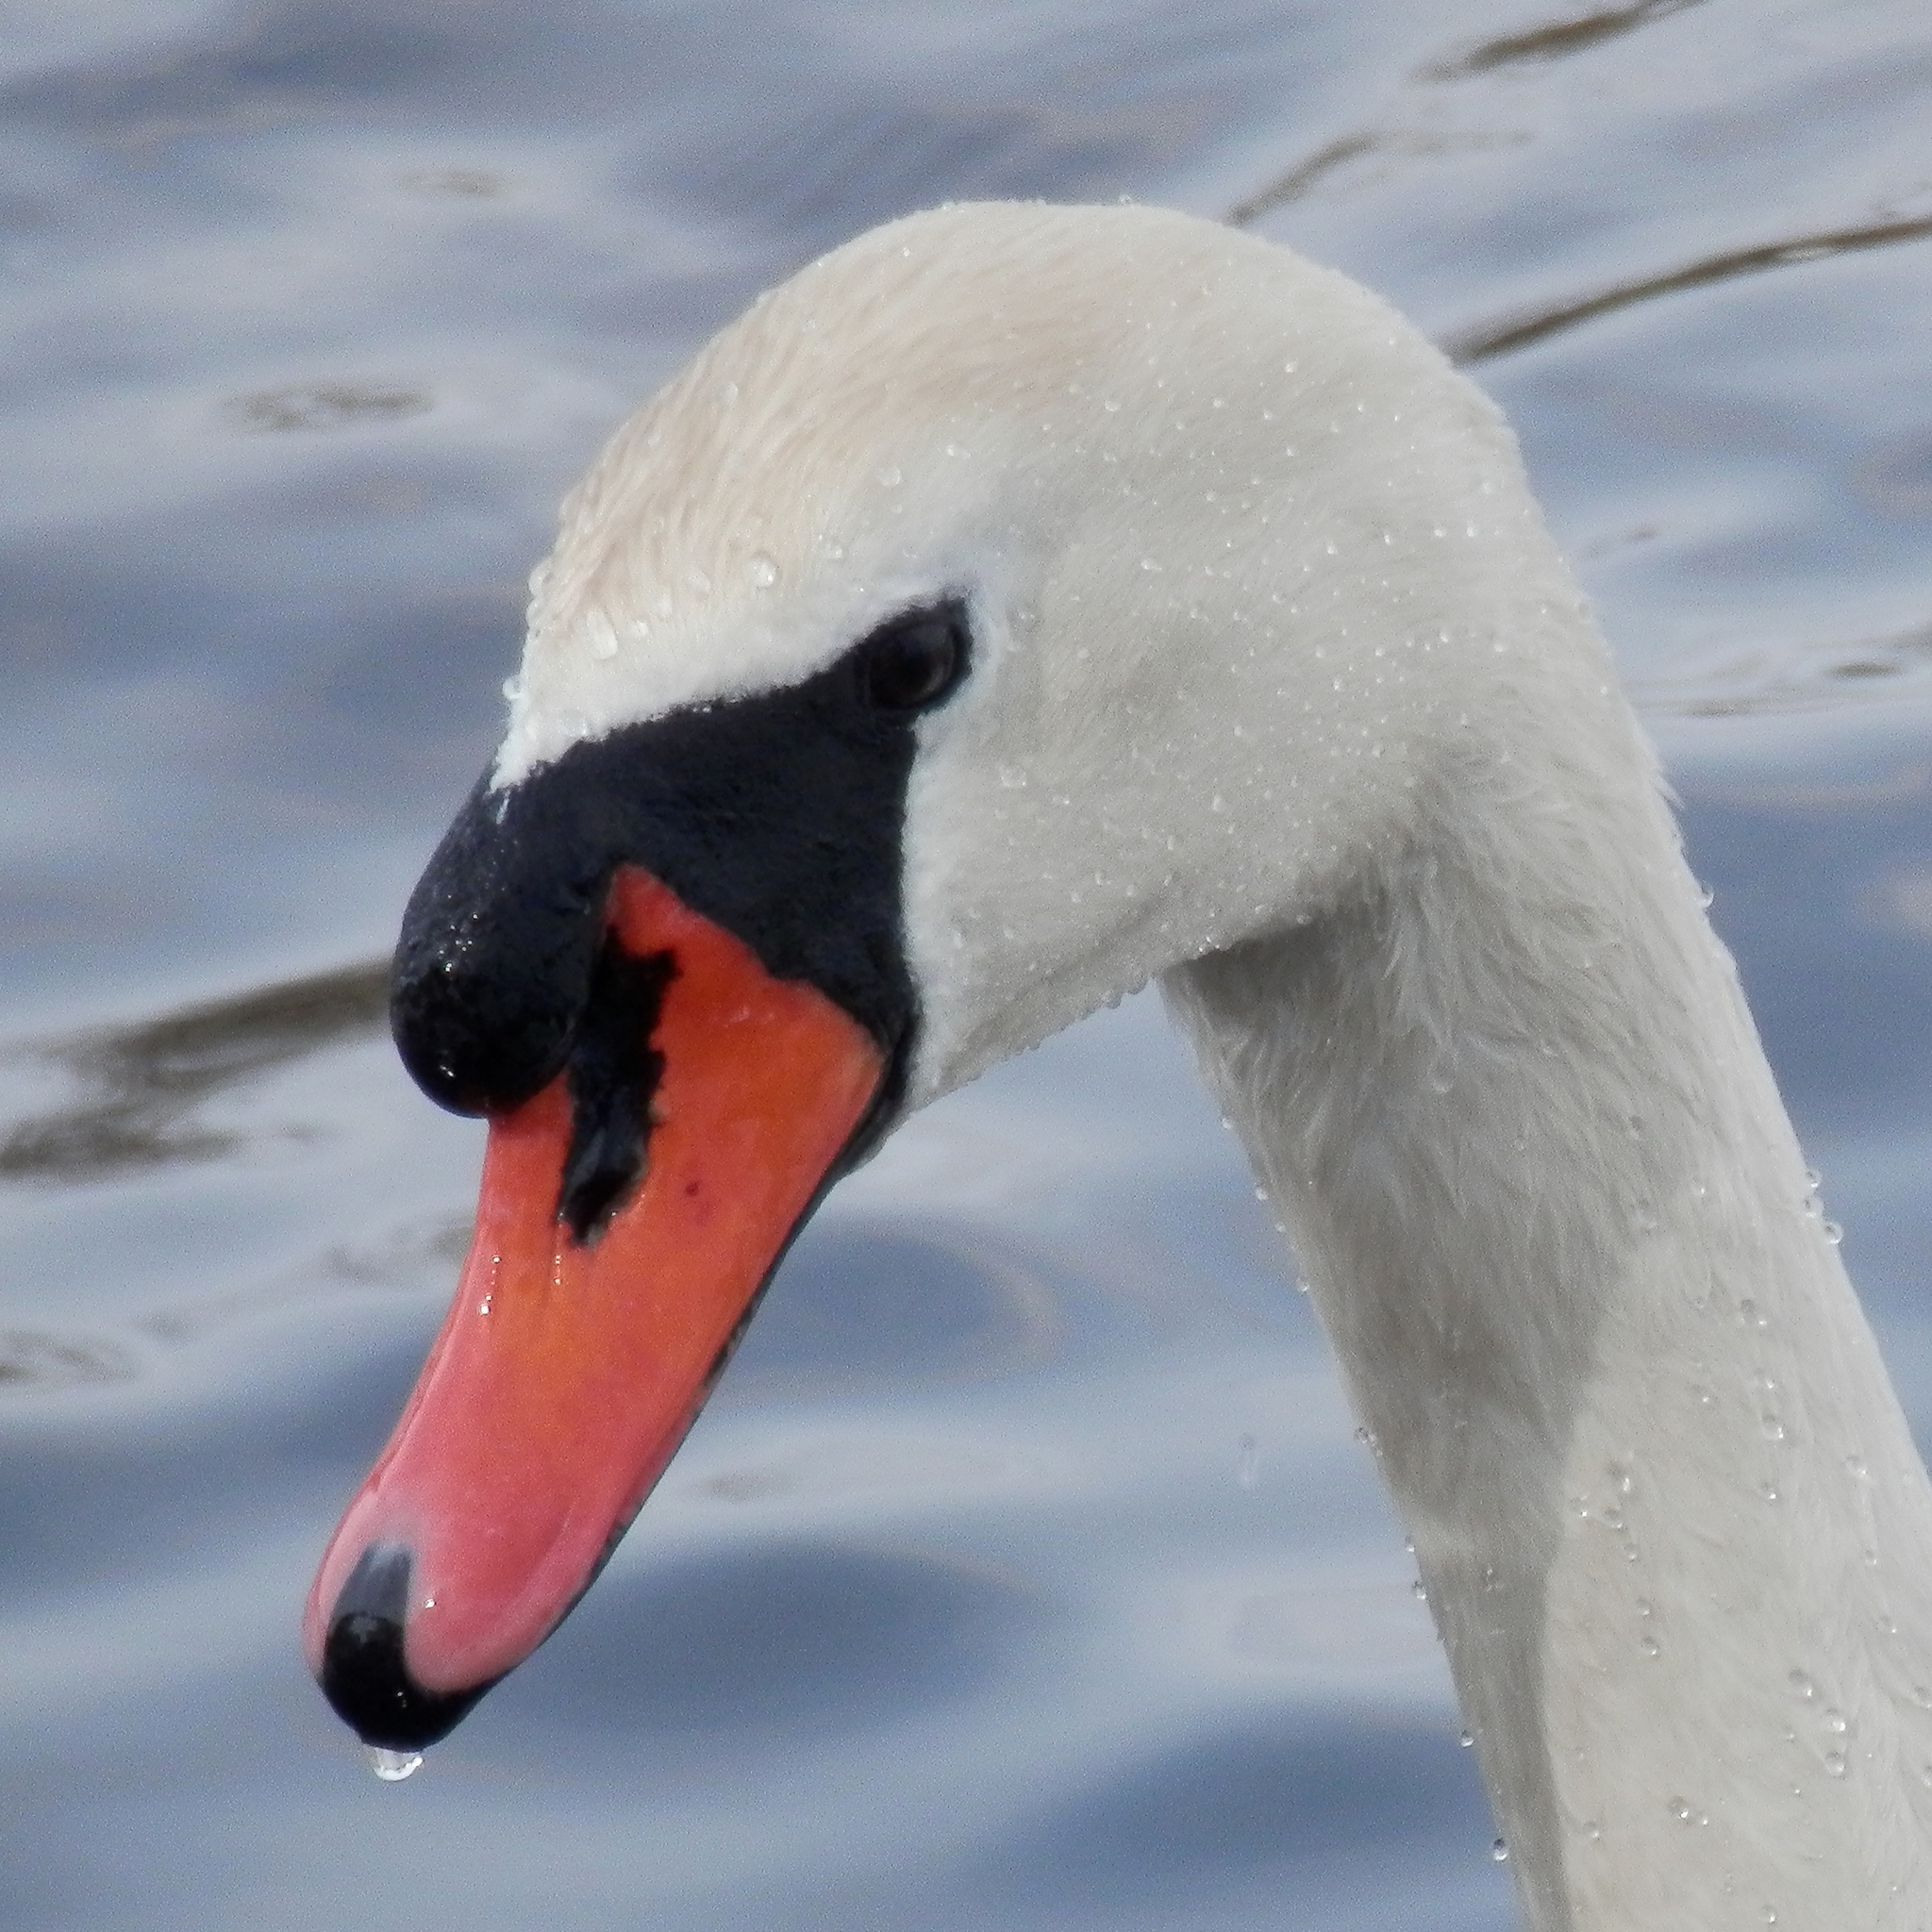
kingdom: Animalia
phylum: Chordata
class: Aves
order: Anseriformes
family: Anatidae
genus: Cygnus
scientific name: Cygnus olor
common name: Mute swan
